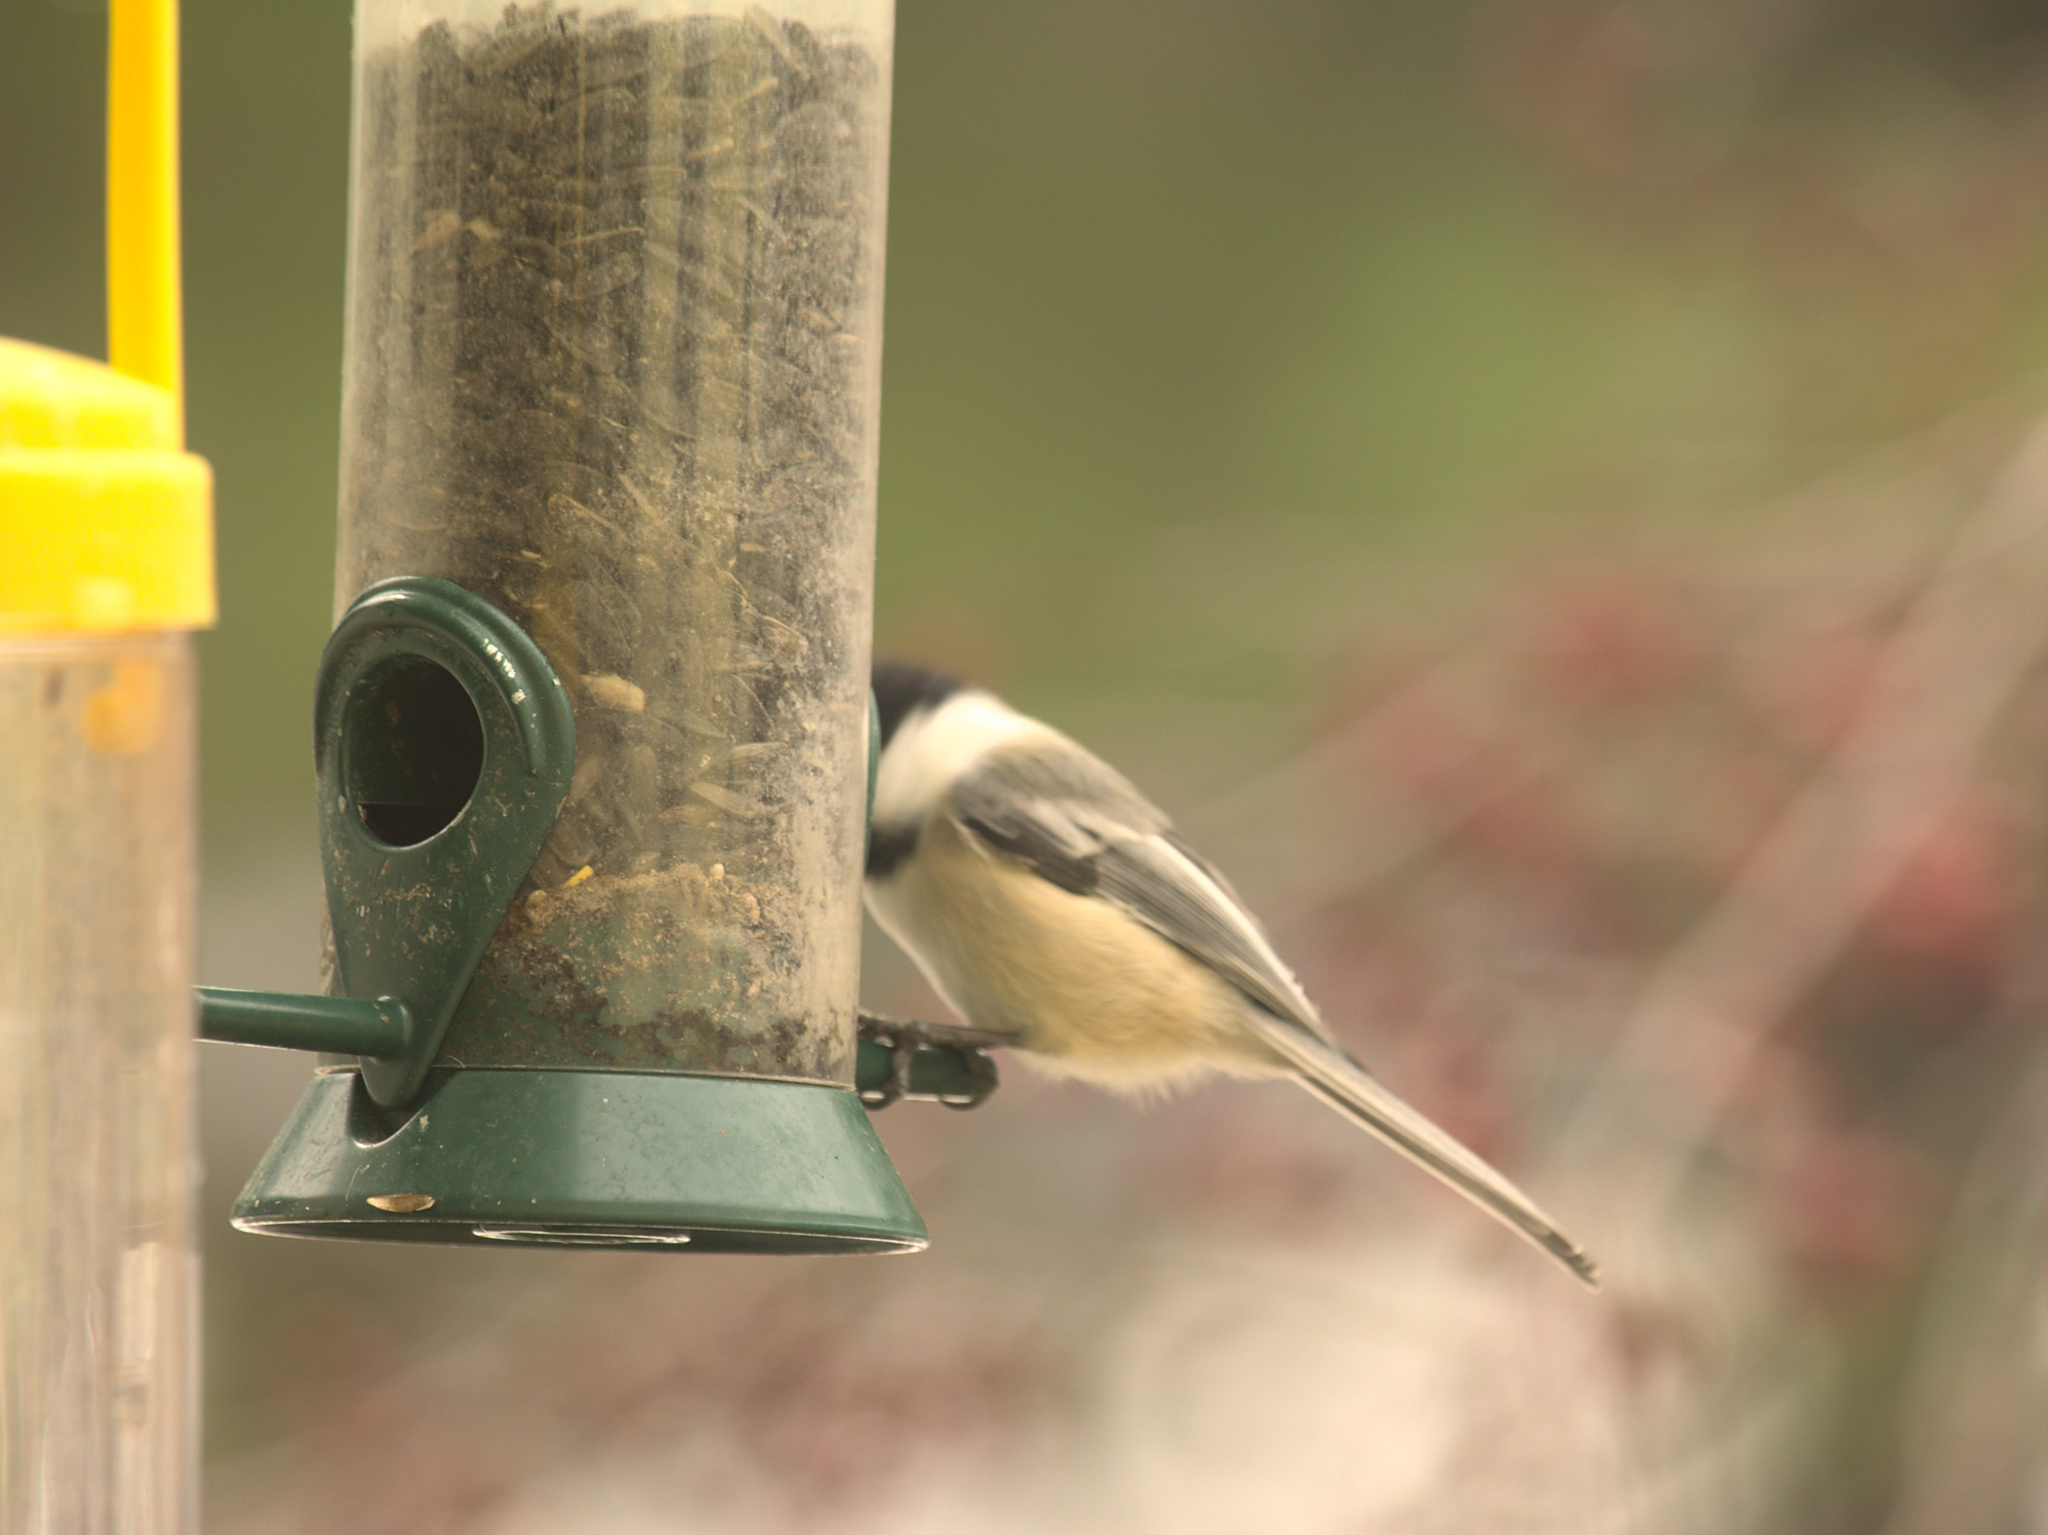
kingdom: Animalia
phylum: Chordata
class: Aves
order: Passeriformes
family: Paridae
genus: Poecile
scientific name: Poecile atricapillus
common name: Black-capped chickadee
